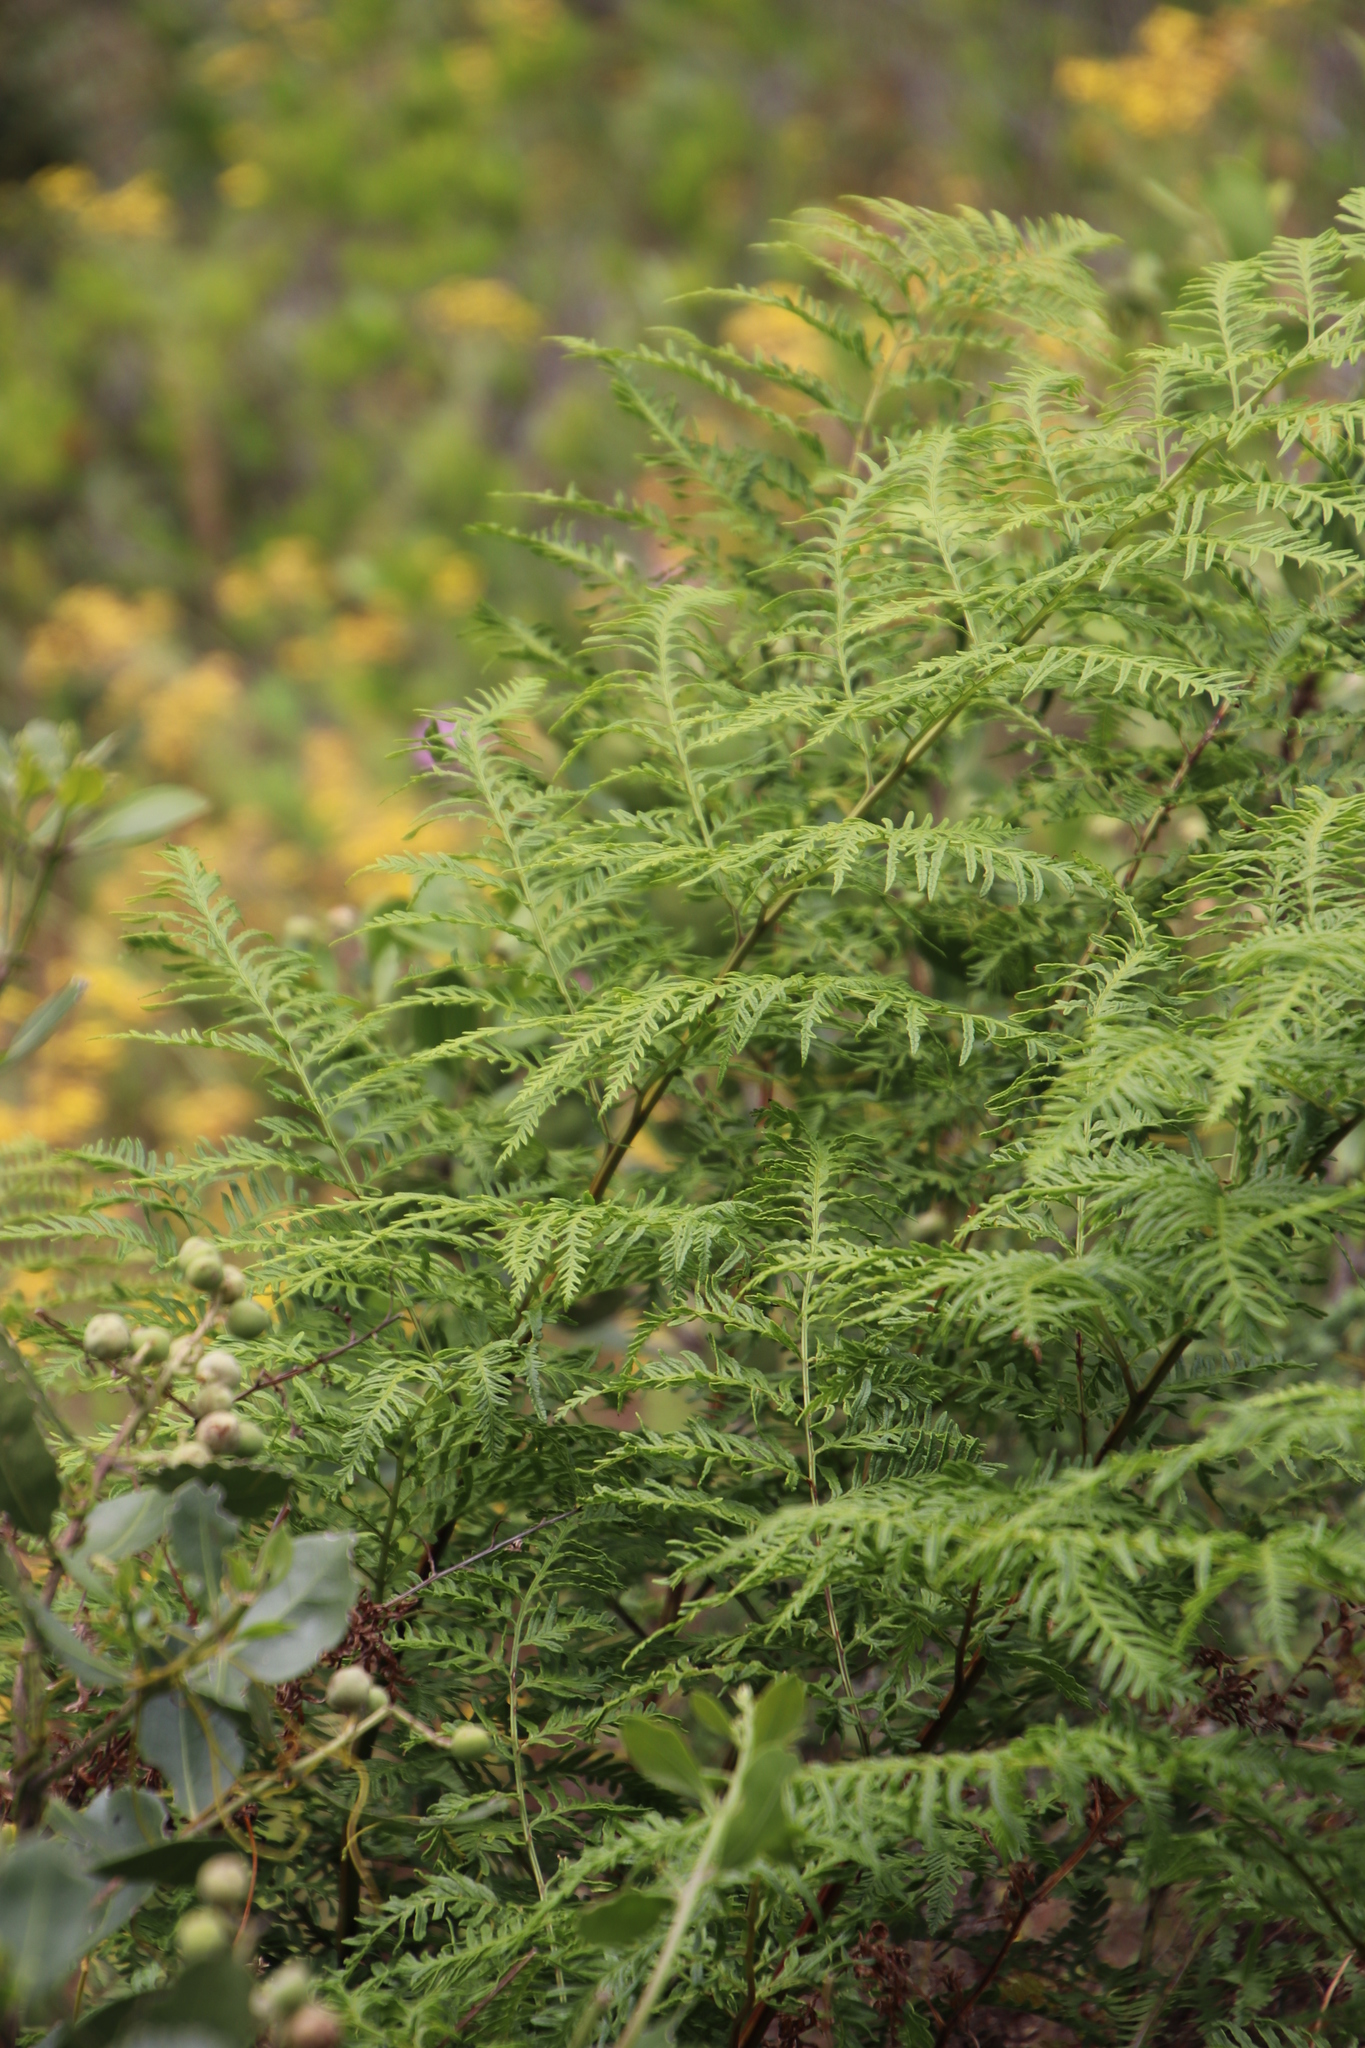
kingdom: Plantae
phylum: Tracheophyta
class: Polypodiopsida
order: Polypodiales
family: Dennstaedtiaceae
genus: Pteridium
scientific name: Pteridium aquilinum
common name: Bracken
